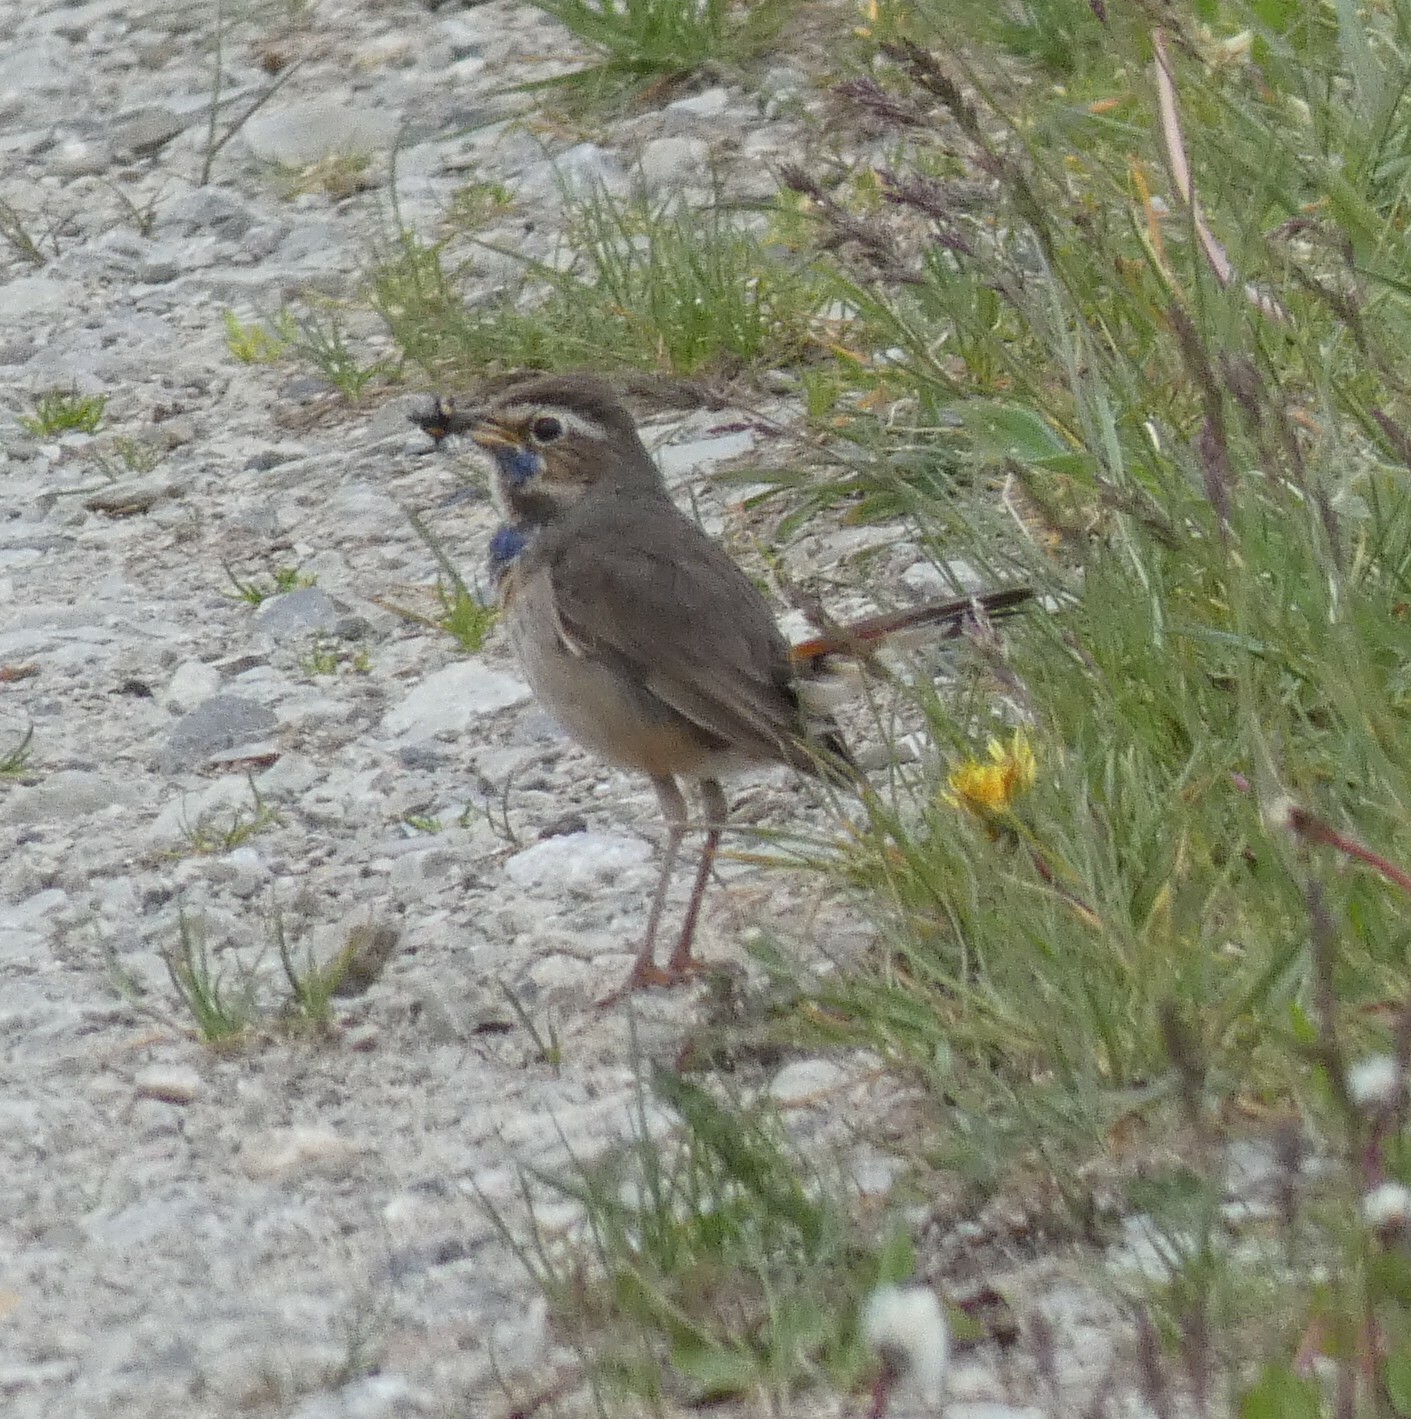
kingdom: Animalia
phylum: Chordata
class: Aves
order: Passeriformes
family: Muscicapidae
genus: Luscinia
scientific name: Luscinia svecica
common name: Bluethroat
